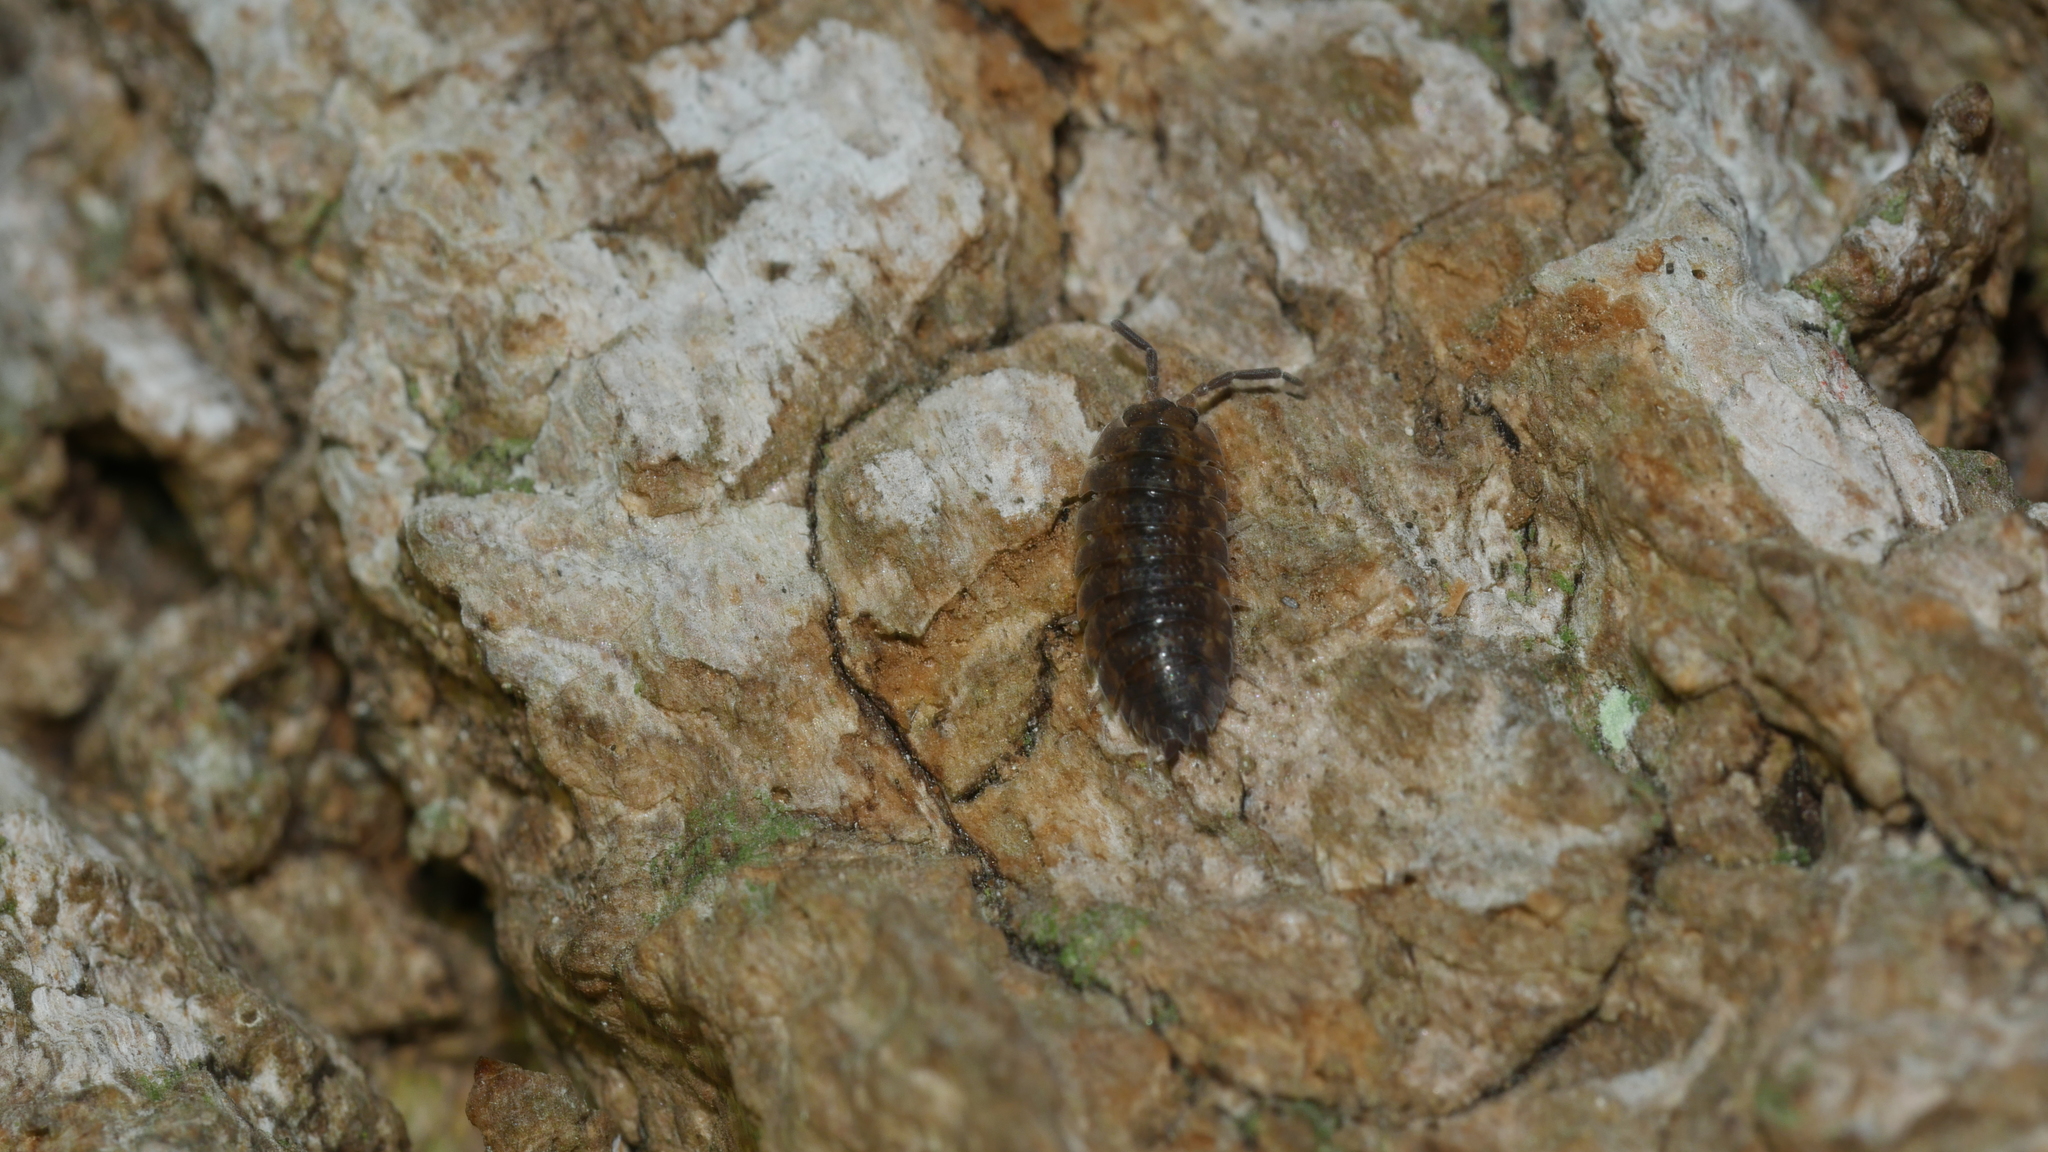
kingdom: Animalia
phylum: Arthropoda
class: Malacostraca
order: Isopoda
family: Porcellionidae
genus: Porcellio
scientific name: Porcellio scaber
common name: Common rough woodlouse
